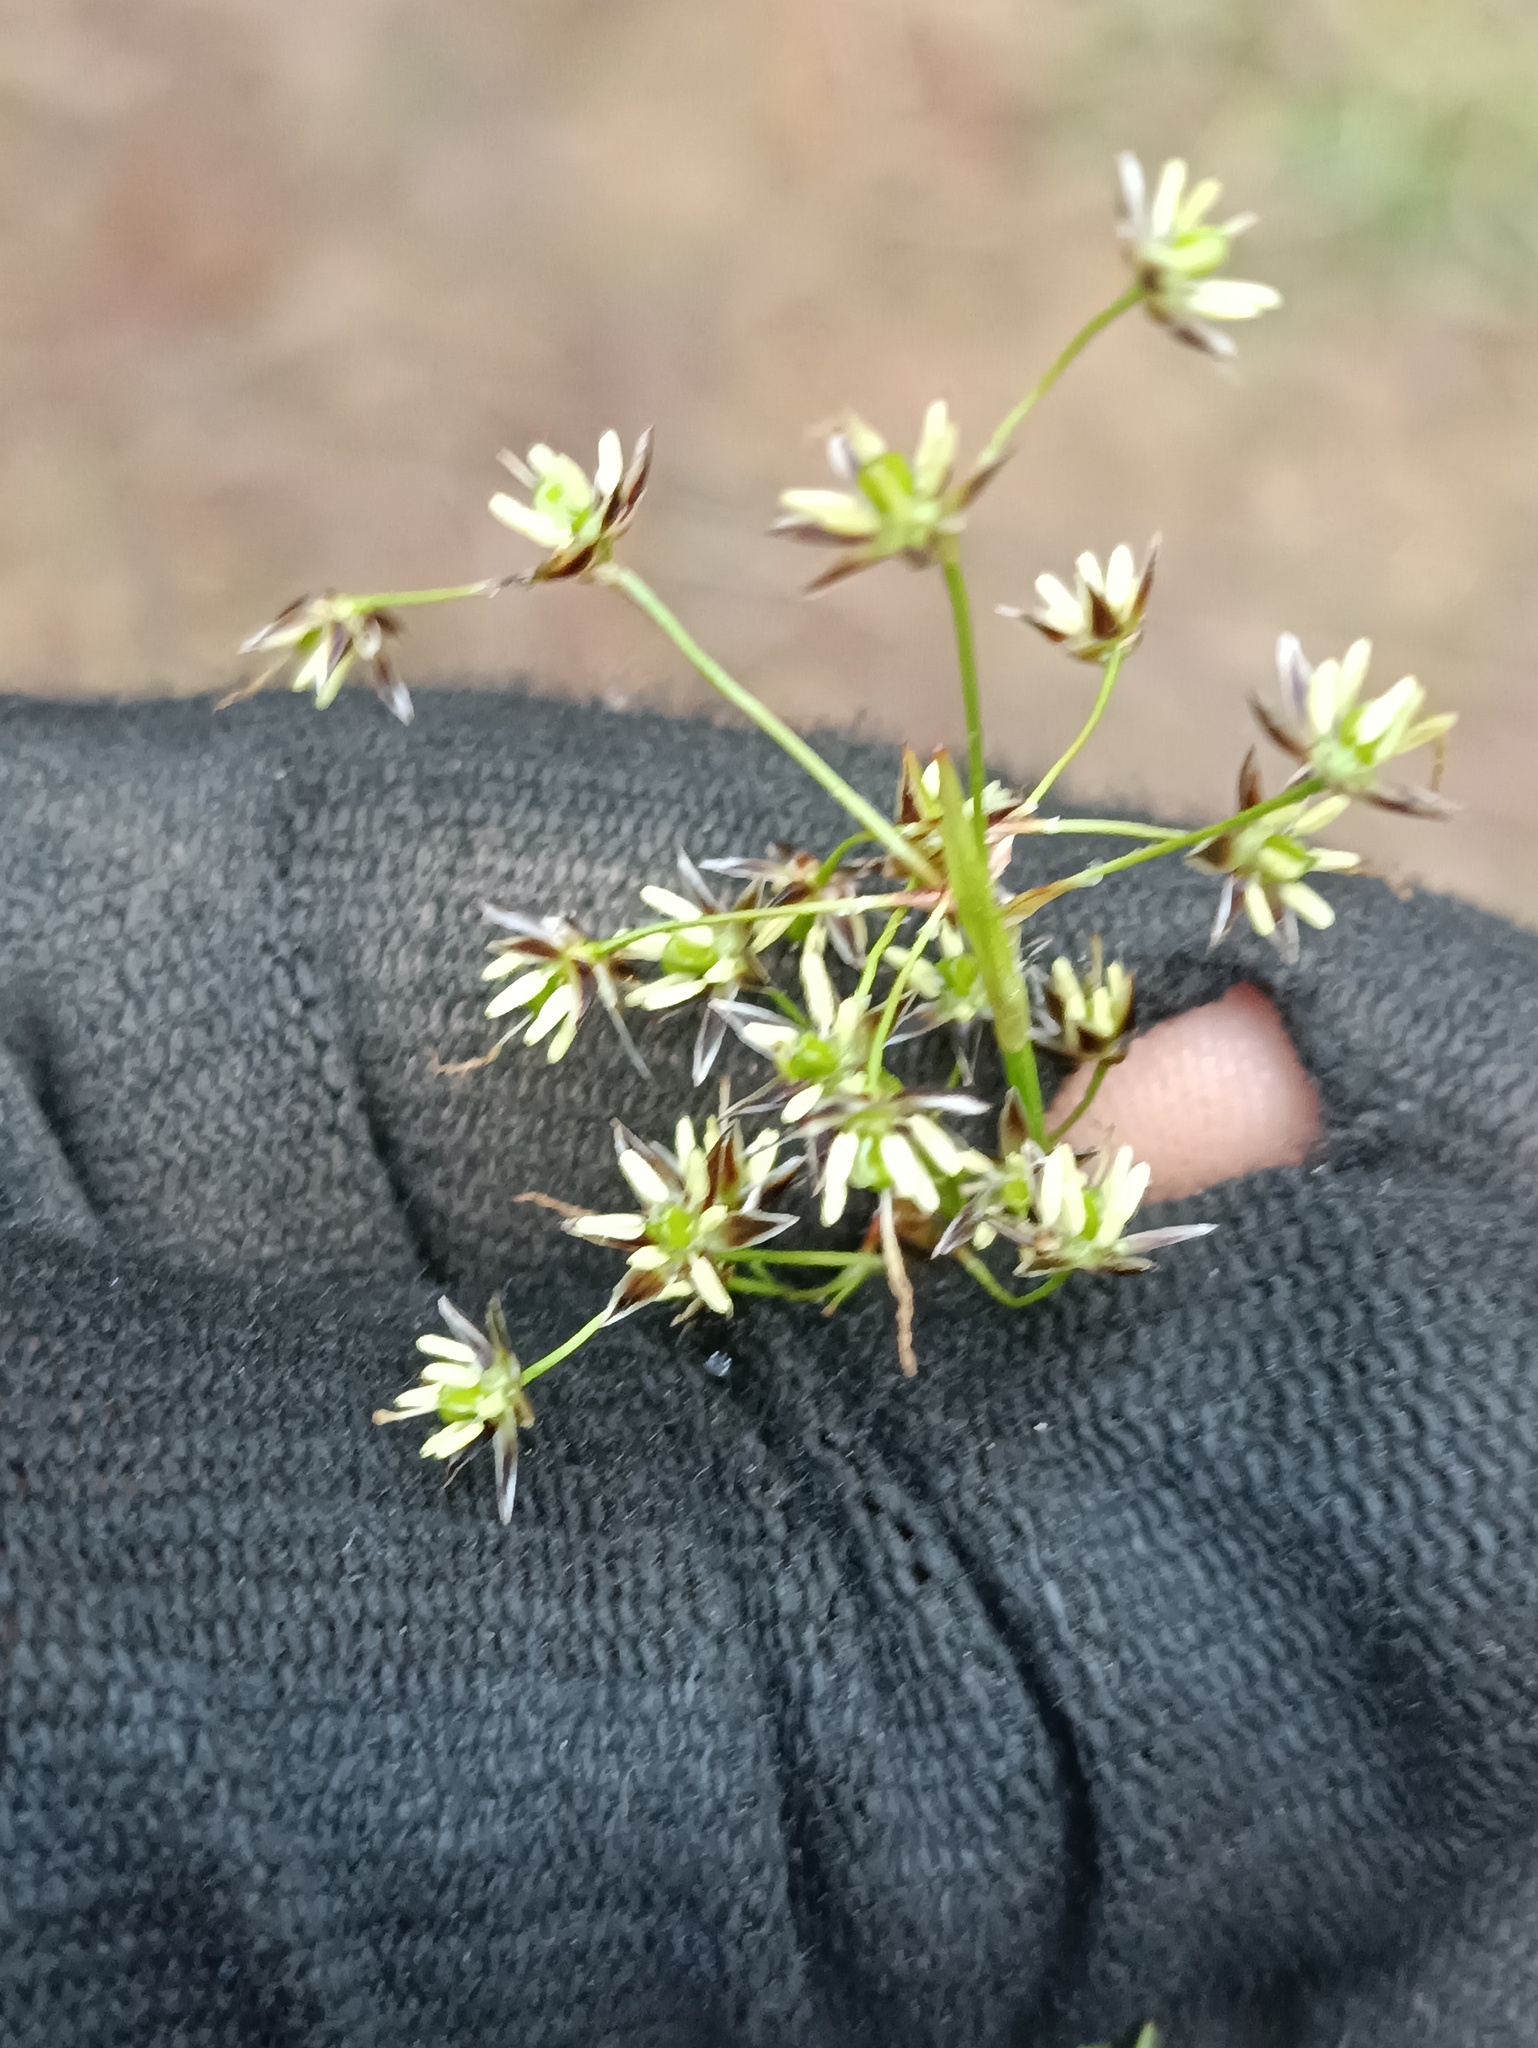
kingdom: Plantae
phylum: Tracheophyta
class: Liliopsida
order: Poales
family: Juncaceae
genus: Luzula
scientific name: Luzula pilosa
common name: Hairy wood-rush
